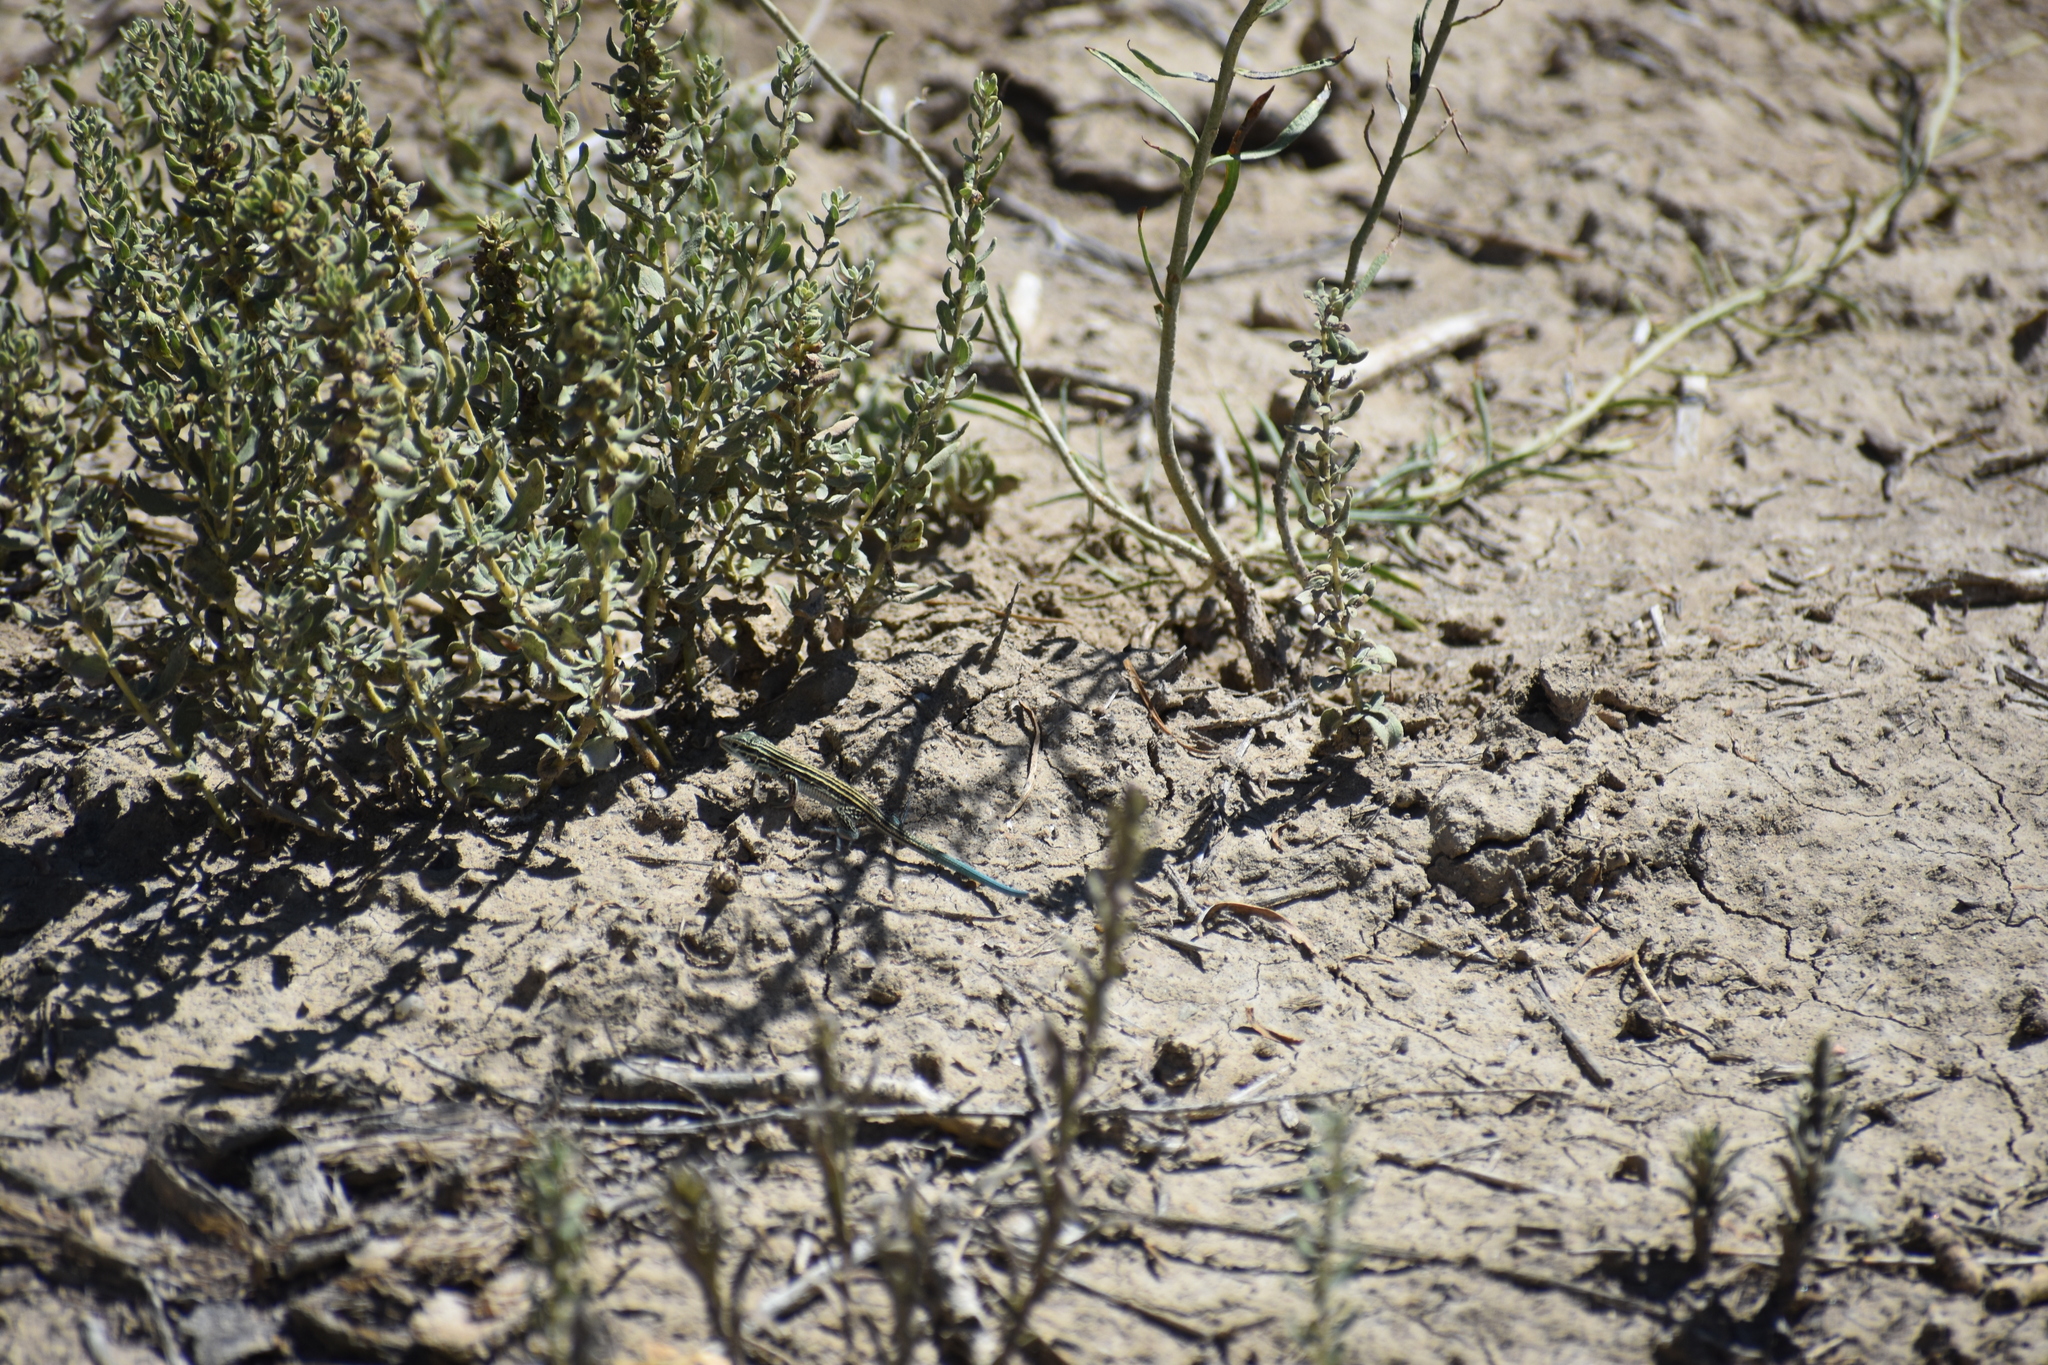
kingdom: Animalia
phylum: Chordata
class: Squamata
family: Teiidae
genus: Aspidoscelis
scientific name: Aspidoscelis velox
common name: Plateau striped whiptail
